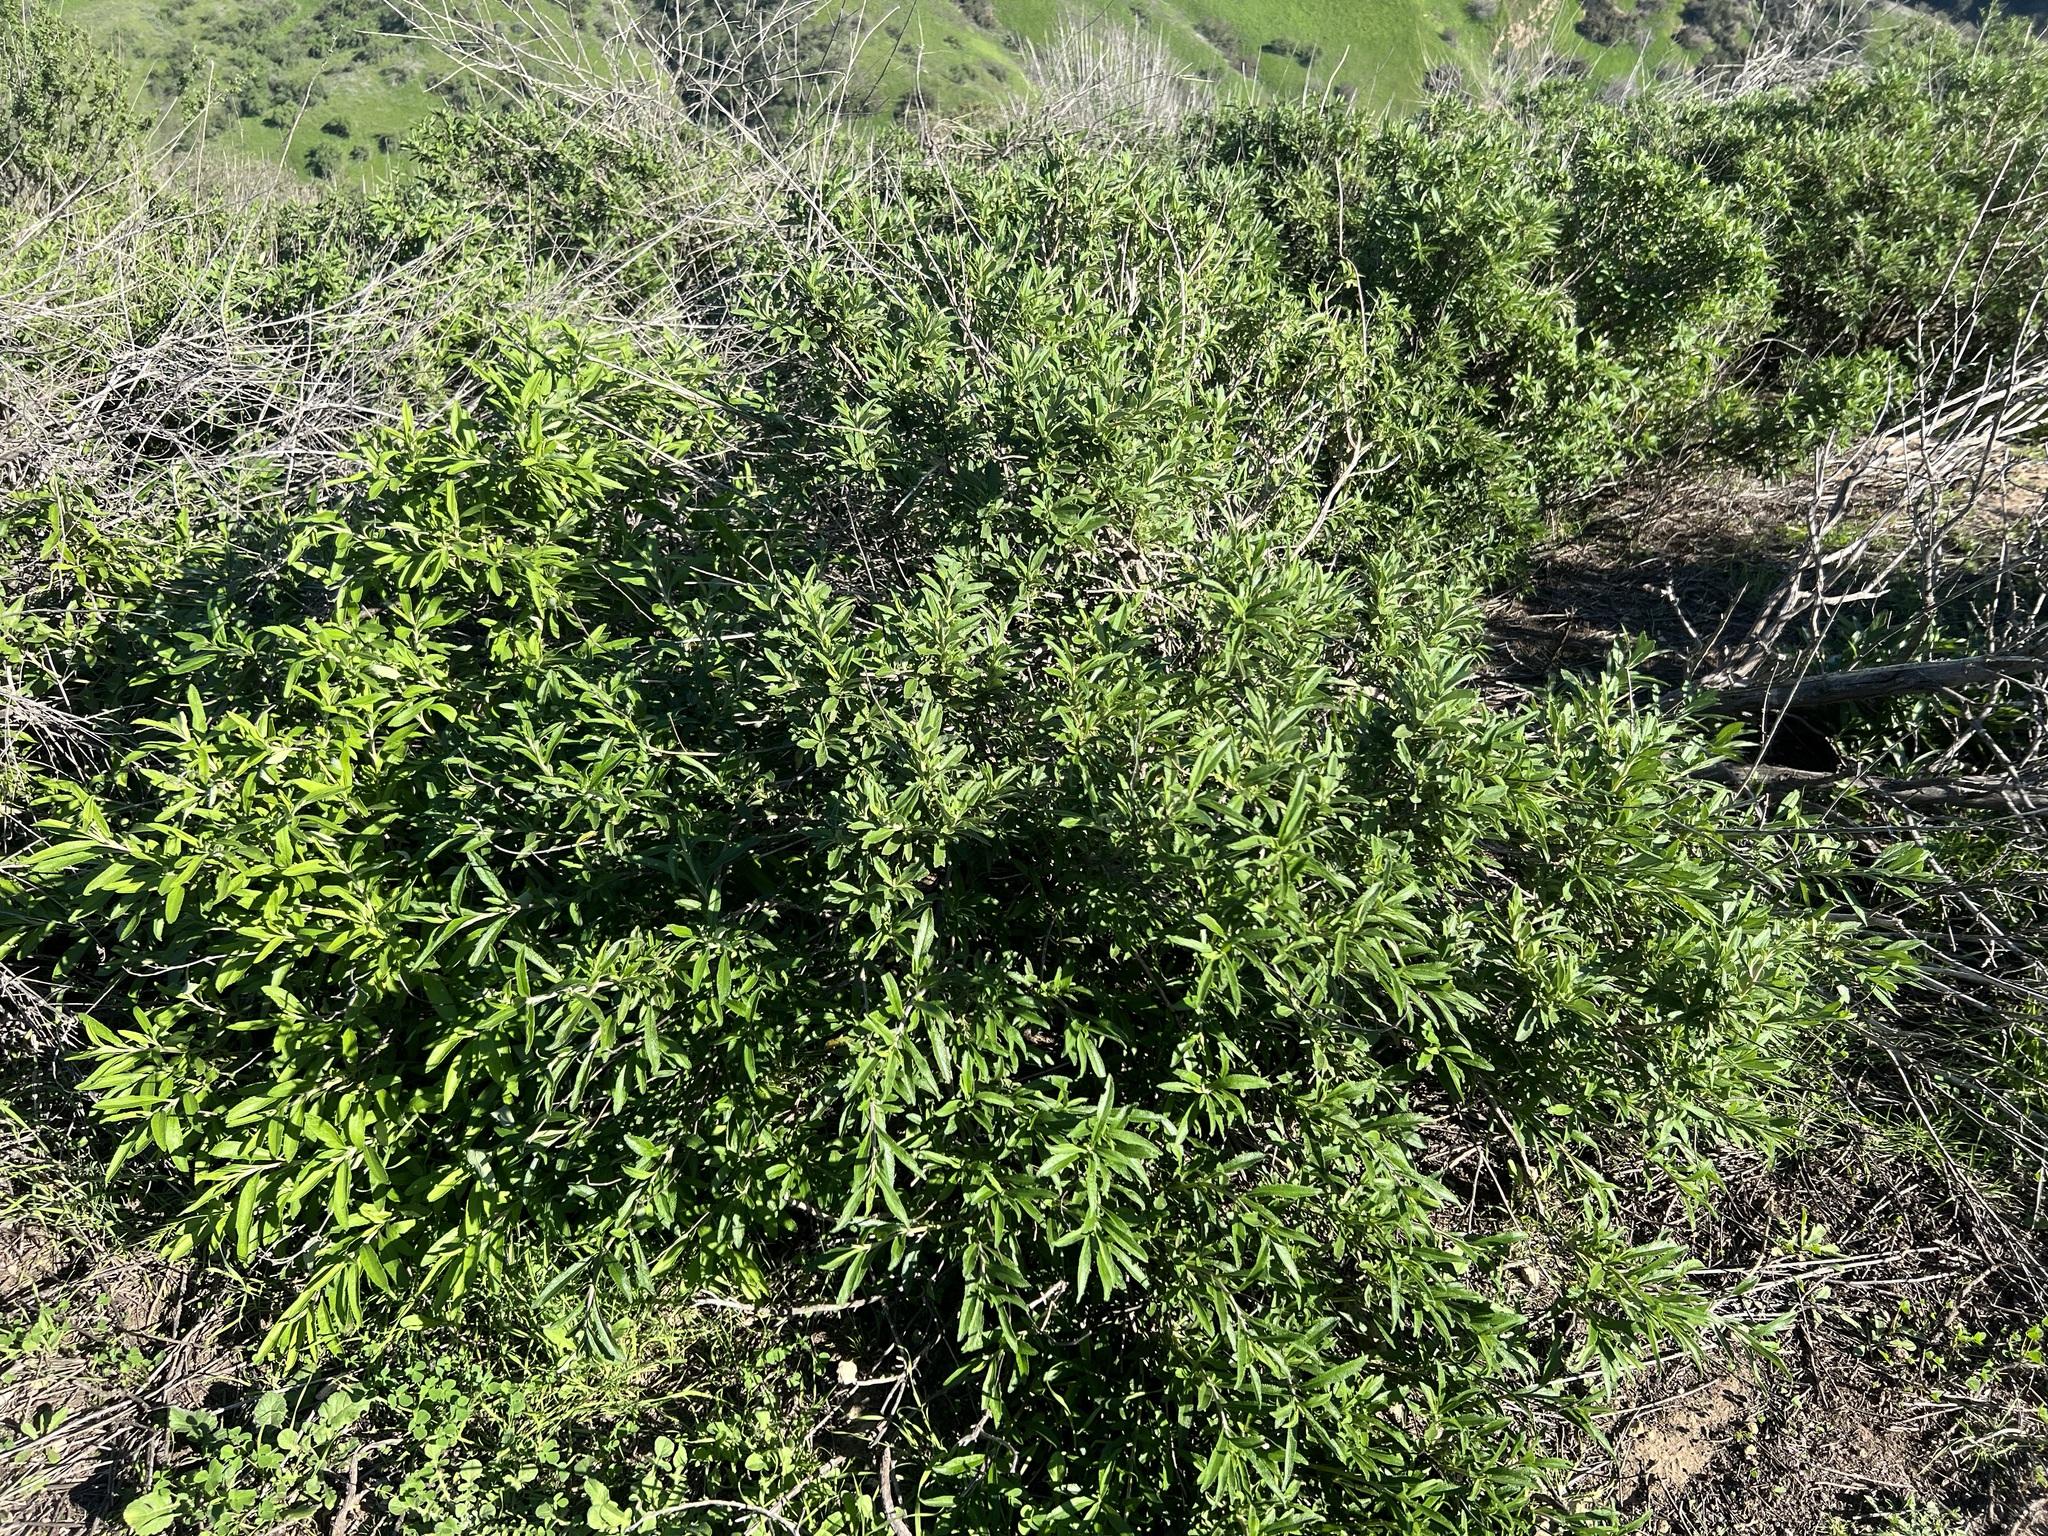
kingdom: Plantae
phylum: Tracheophyta
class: Magnoliopsida
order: Lamiales
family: Lamiaceae
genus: Salvia
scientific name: Salvia mellifera
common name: Black sage
